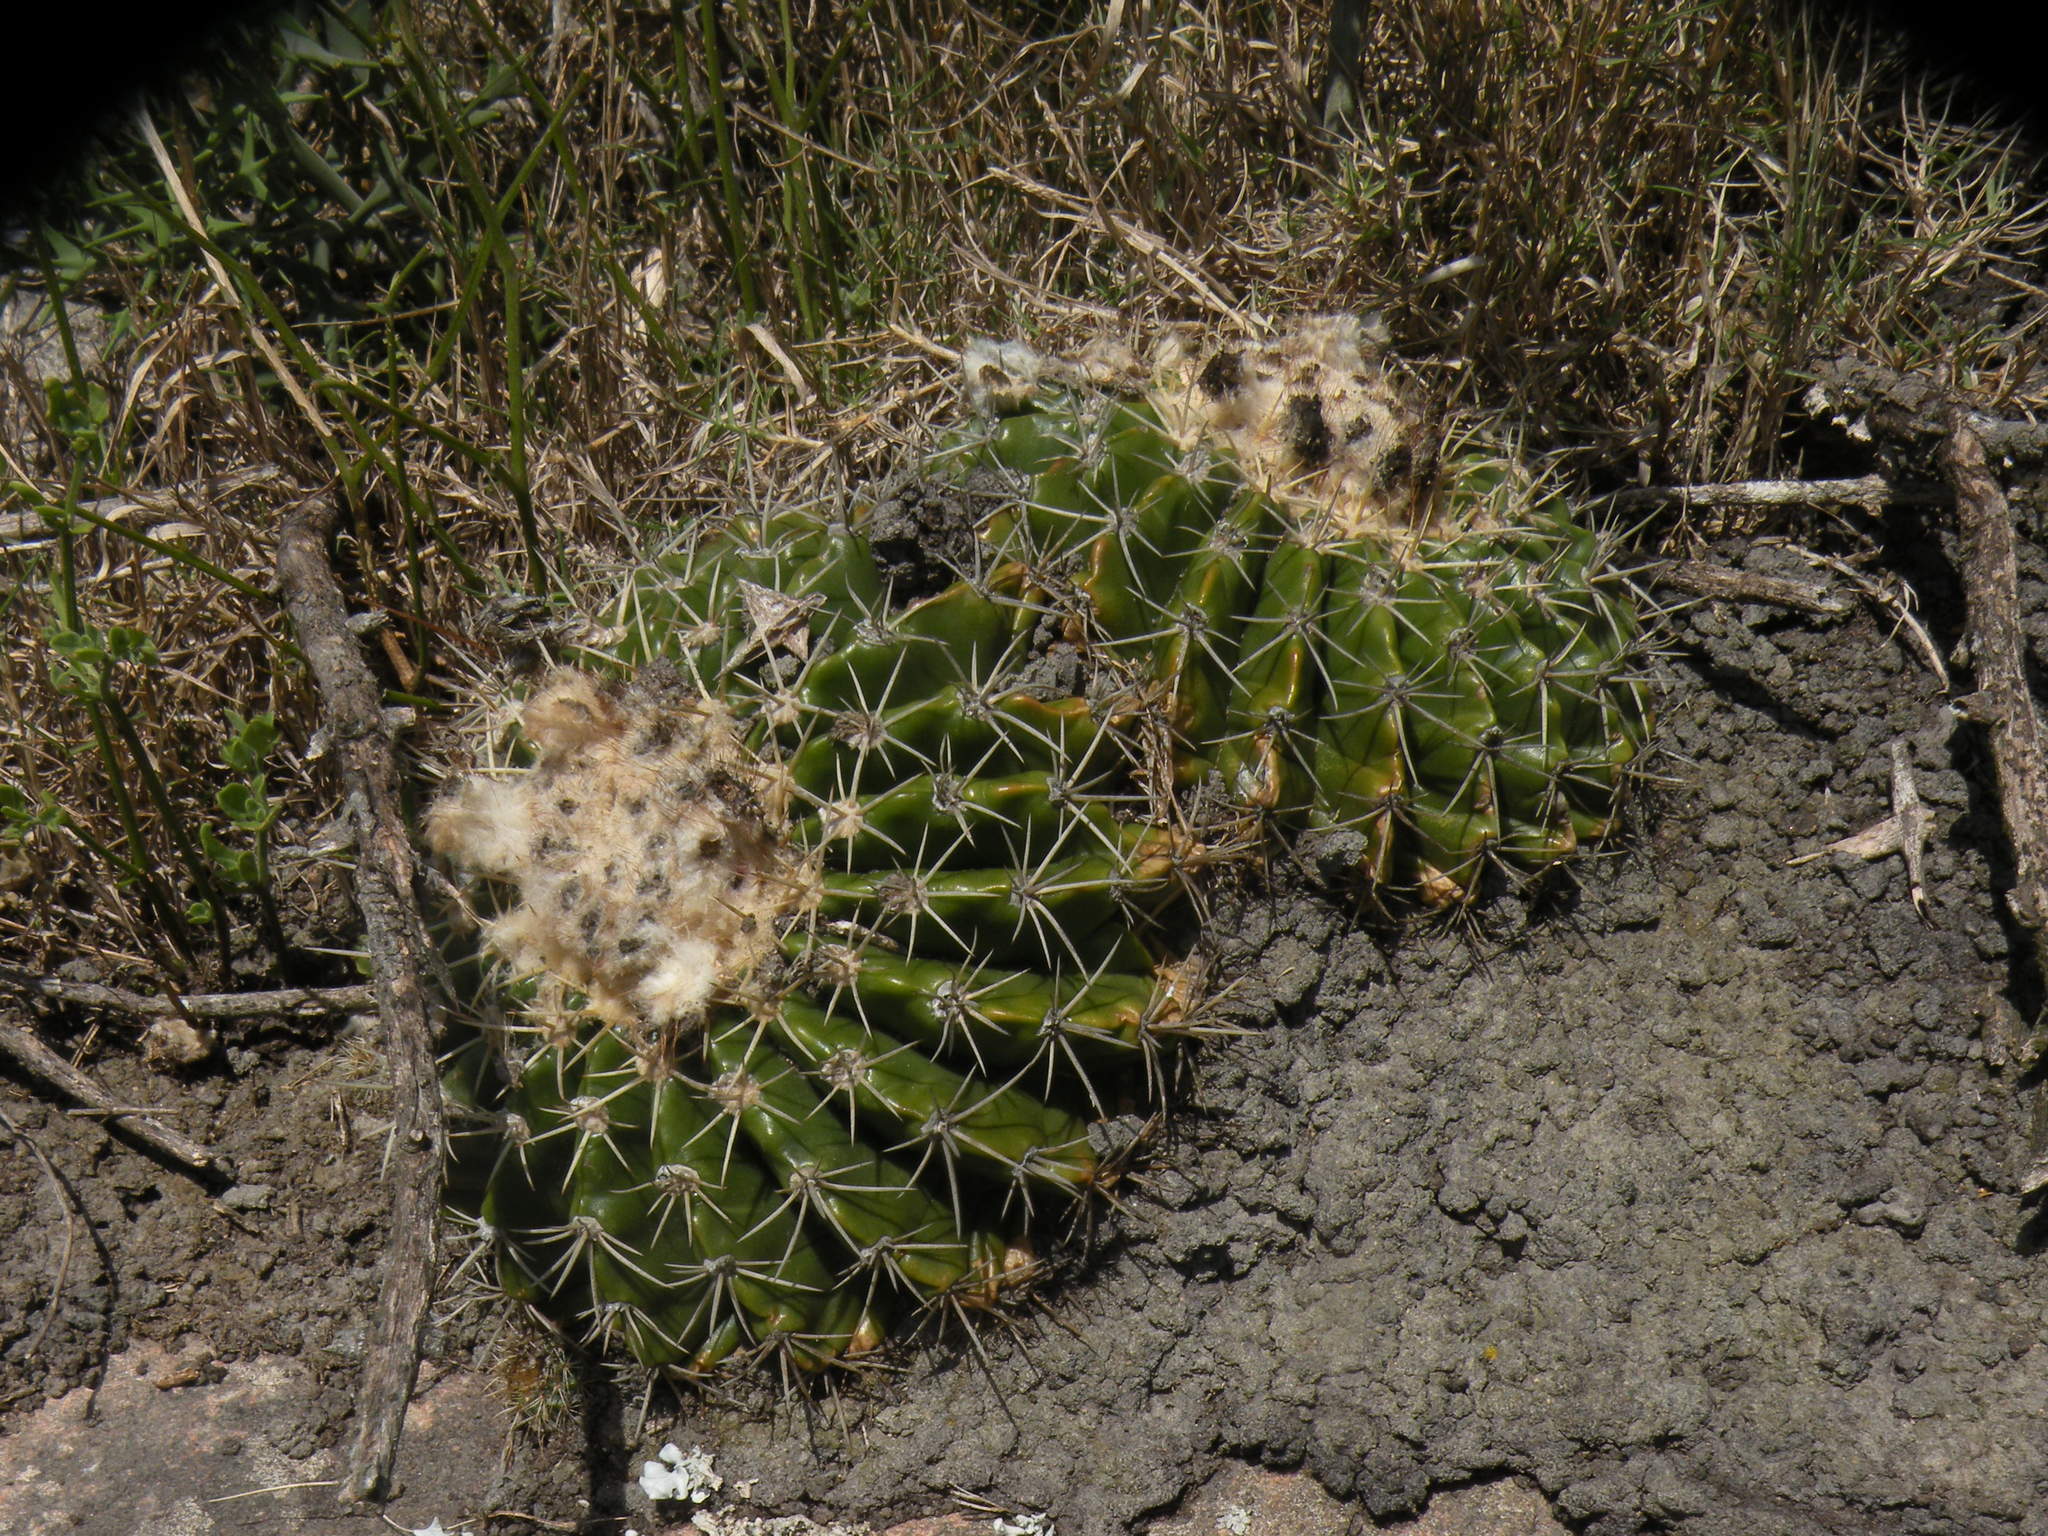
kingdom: Plantae
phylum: Tracheophyta
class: Magnoliopsida
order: Caryophyllales
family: Cactaceae
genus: Parodia
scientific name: Parodia erinacea
